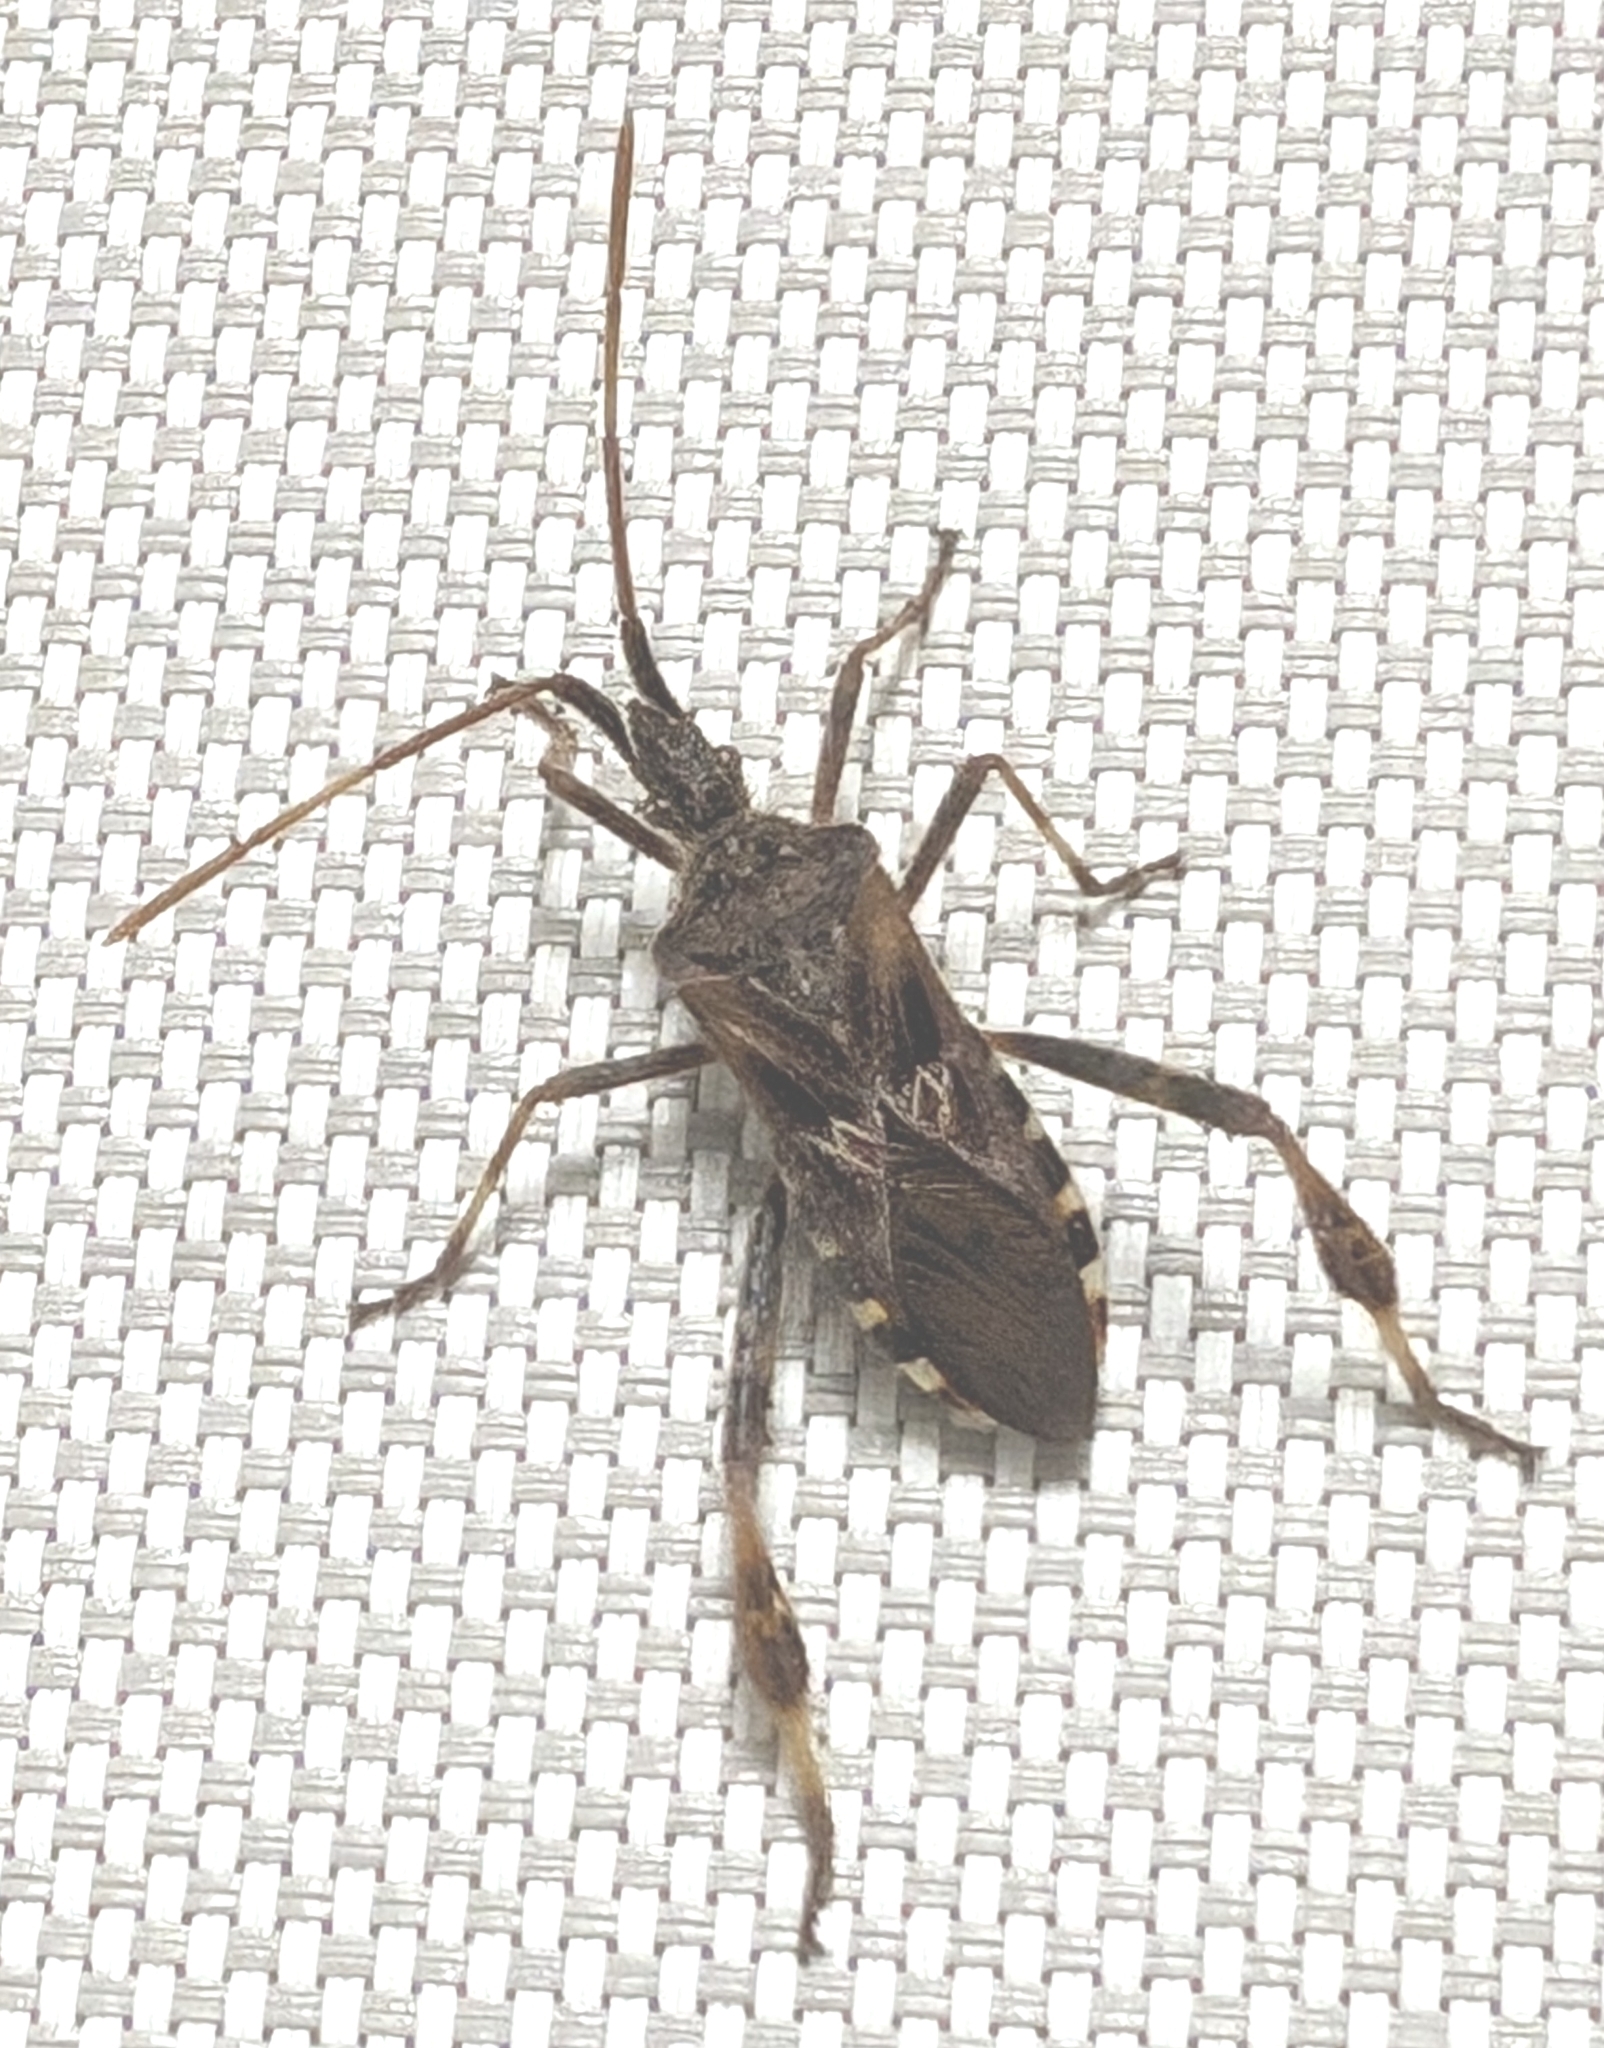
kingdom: Animalia
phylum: Arthropoda
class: Insecta
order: Hemiptera
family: Coreidae
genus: Leptoglossus
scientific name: Leptoglossus occidentalis
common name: Western conifer-seed bug
